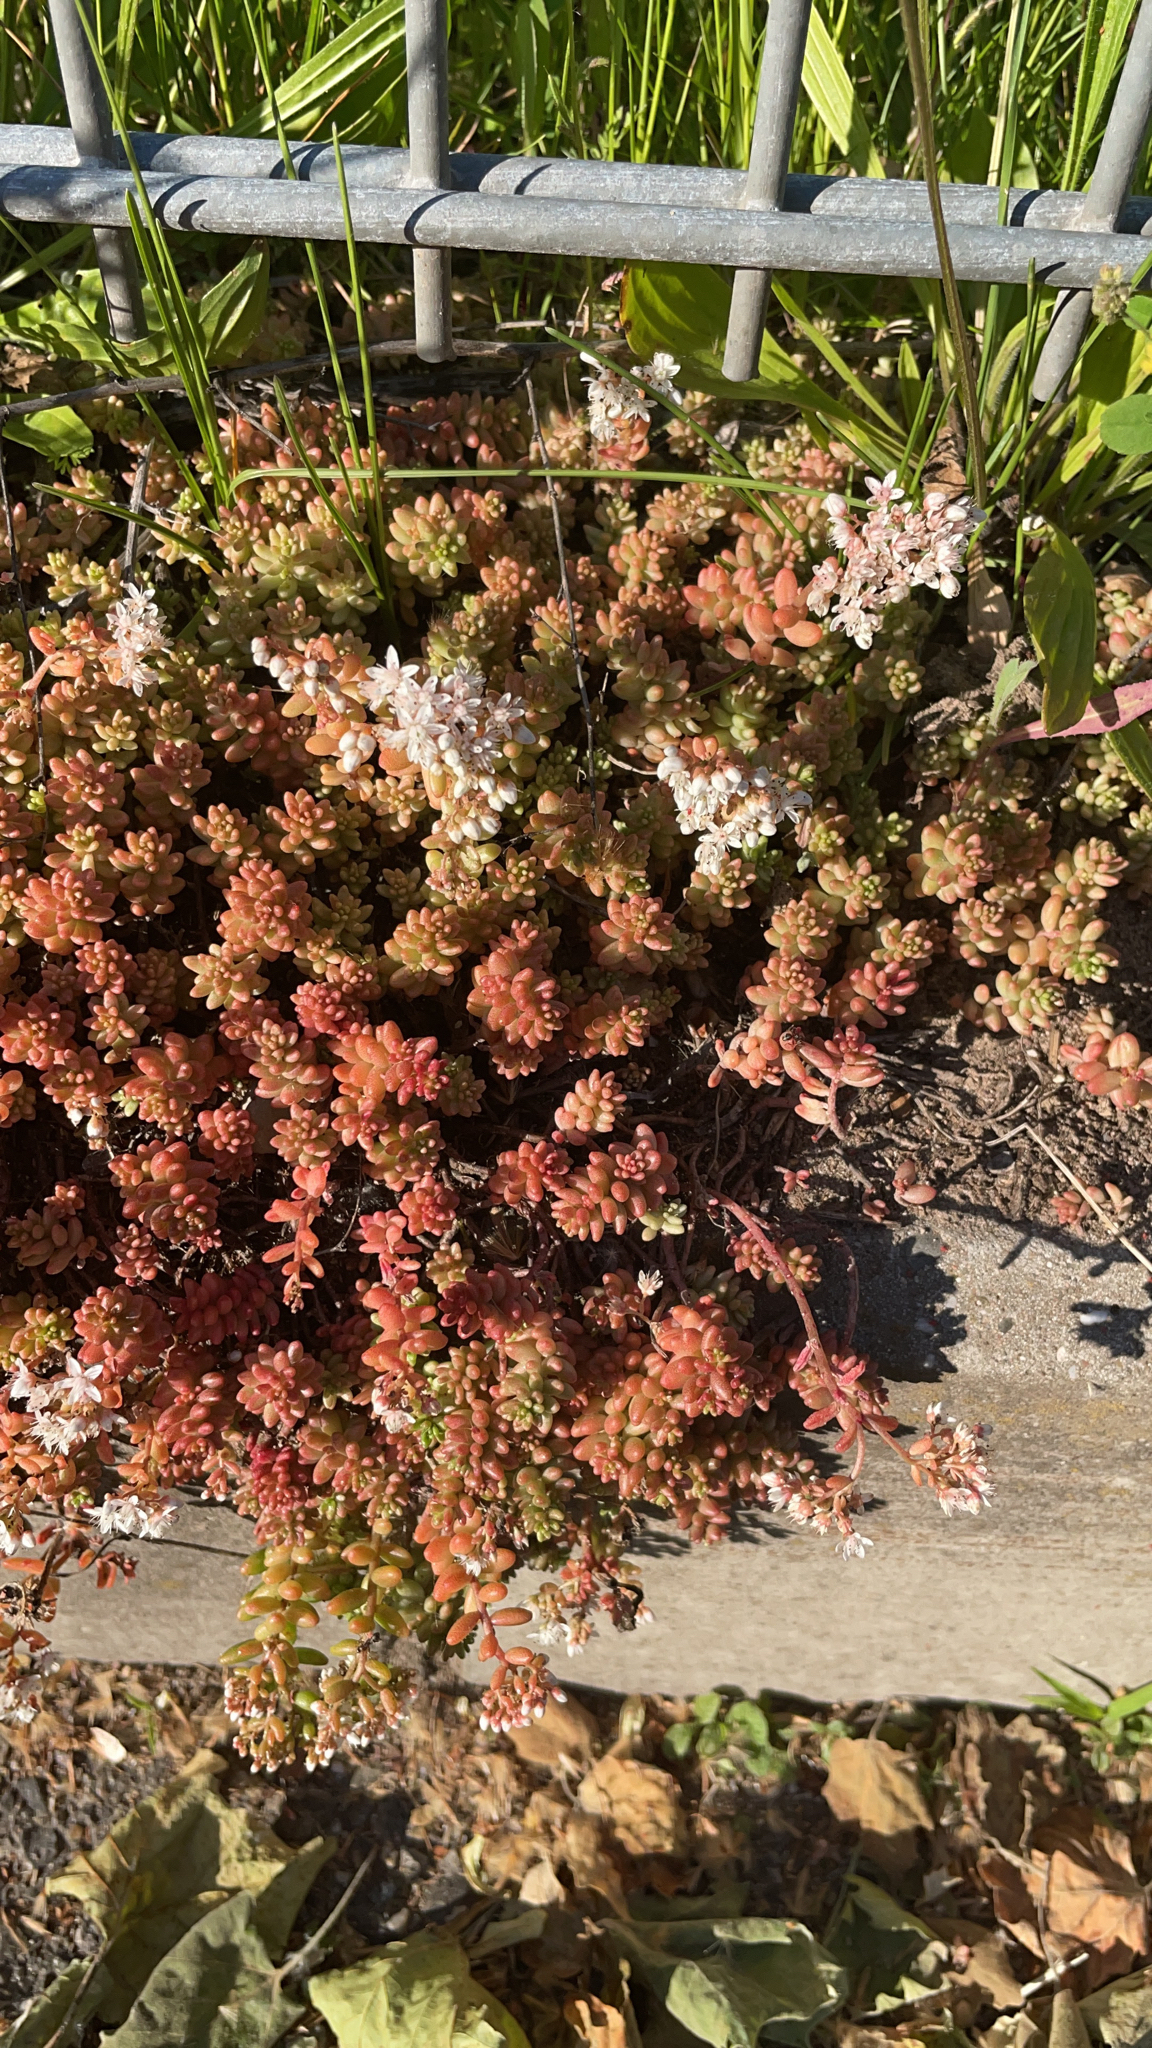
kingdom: Plantae
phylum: Tracheophyta
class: Magnoliopsida
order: Saxifragales
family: Crassulaceae
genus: Sedum
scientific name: Sedum album
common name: White stonecrop
